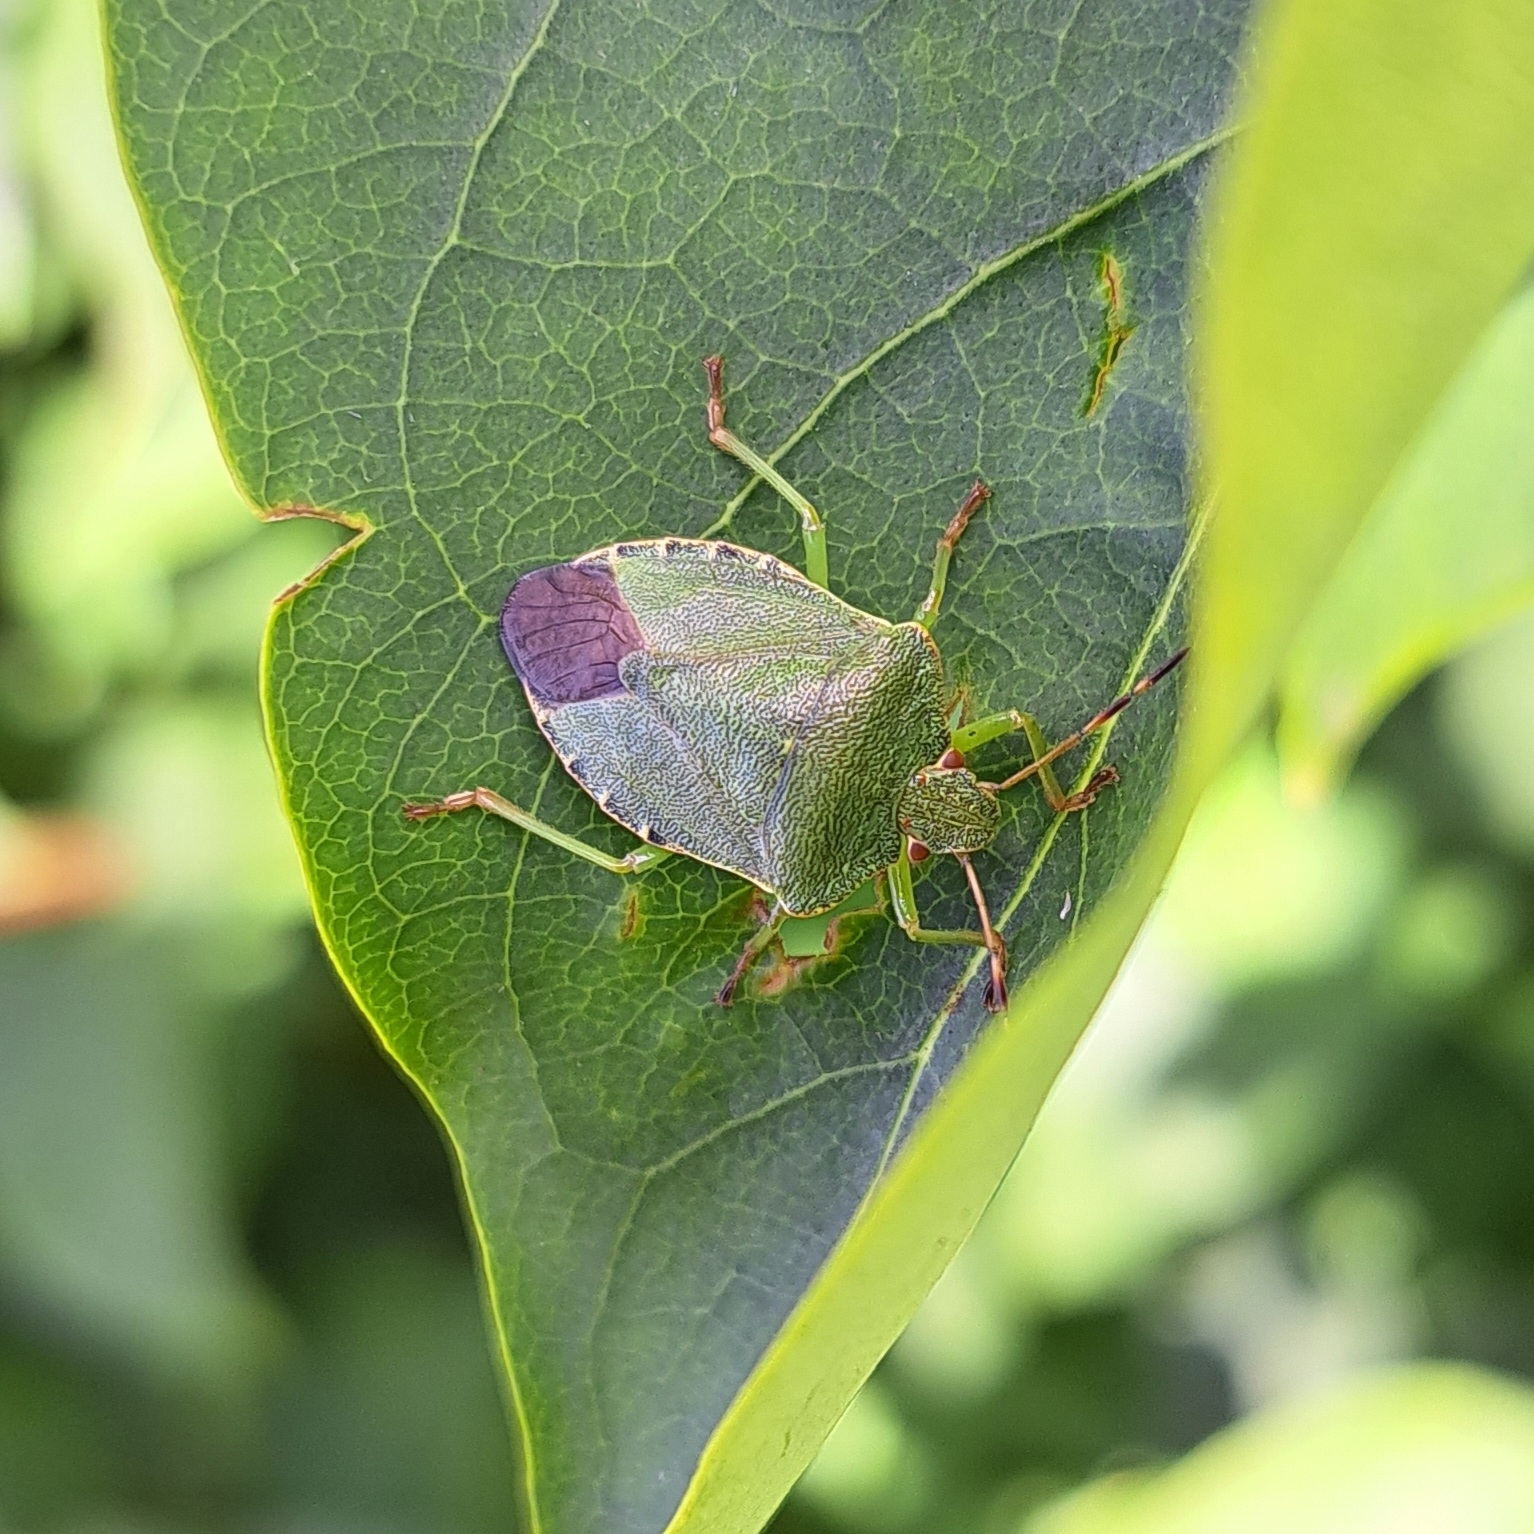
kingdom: Animalia
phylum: Arthropoda
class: Insecta
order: Hemiptera
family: Pentatomidae
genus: Palomena
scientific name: Palomena prasina
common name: Green shieldbug
